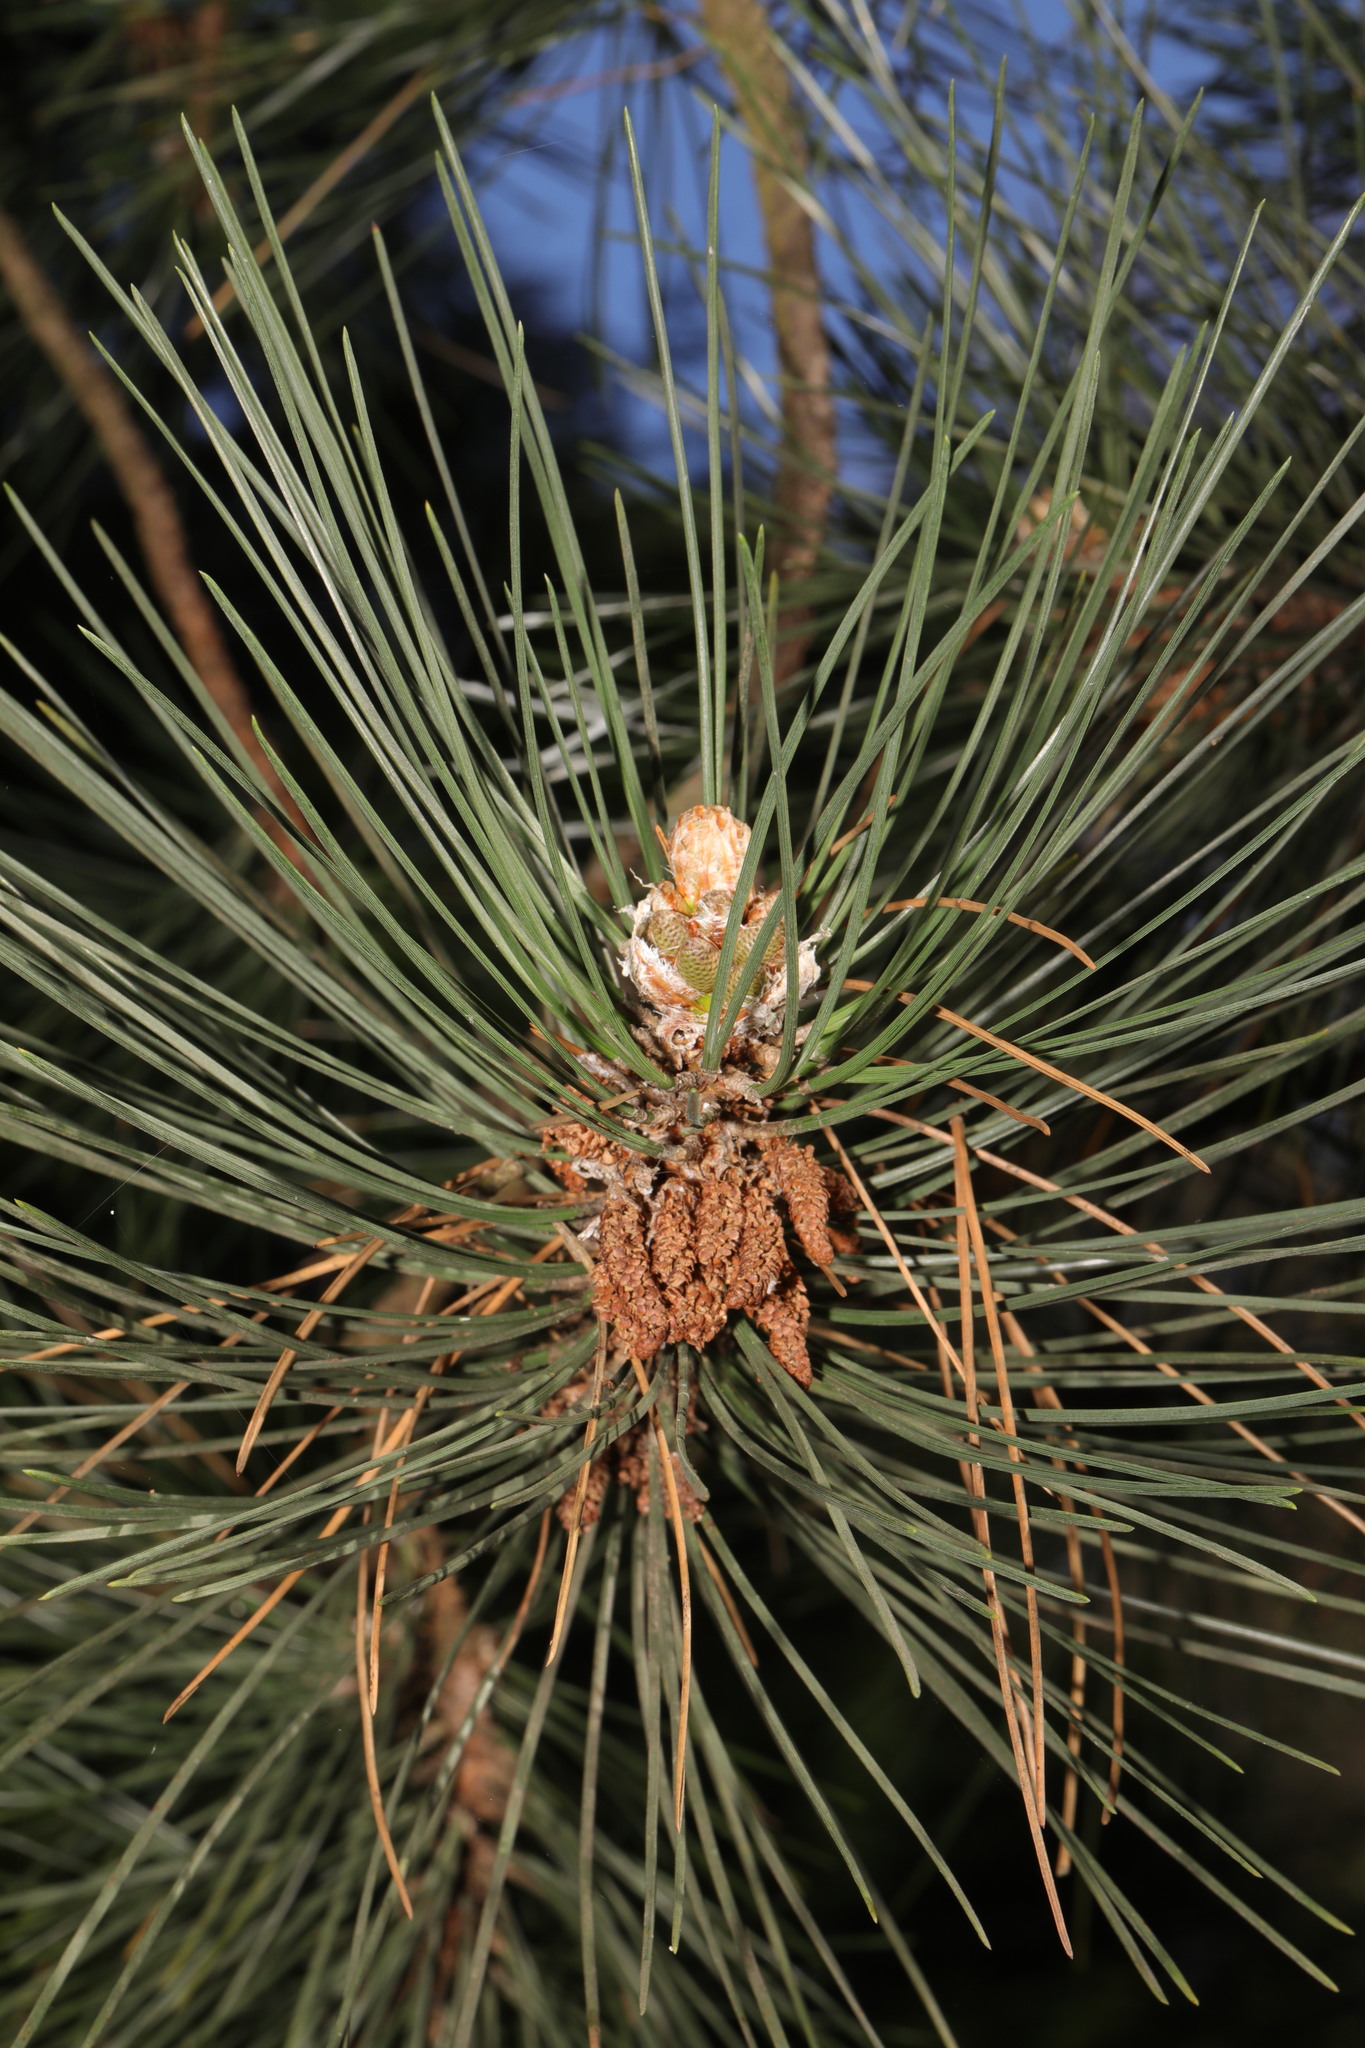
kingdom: Plantae
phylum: Tracheophyta
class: Pinopsida
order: Pinales
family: Pinaceae
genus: Pinus
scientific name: Pinus nigra
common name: Austrian pine
